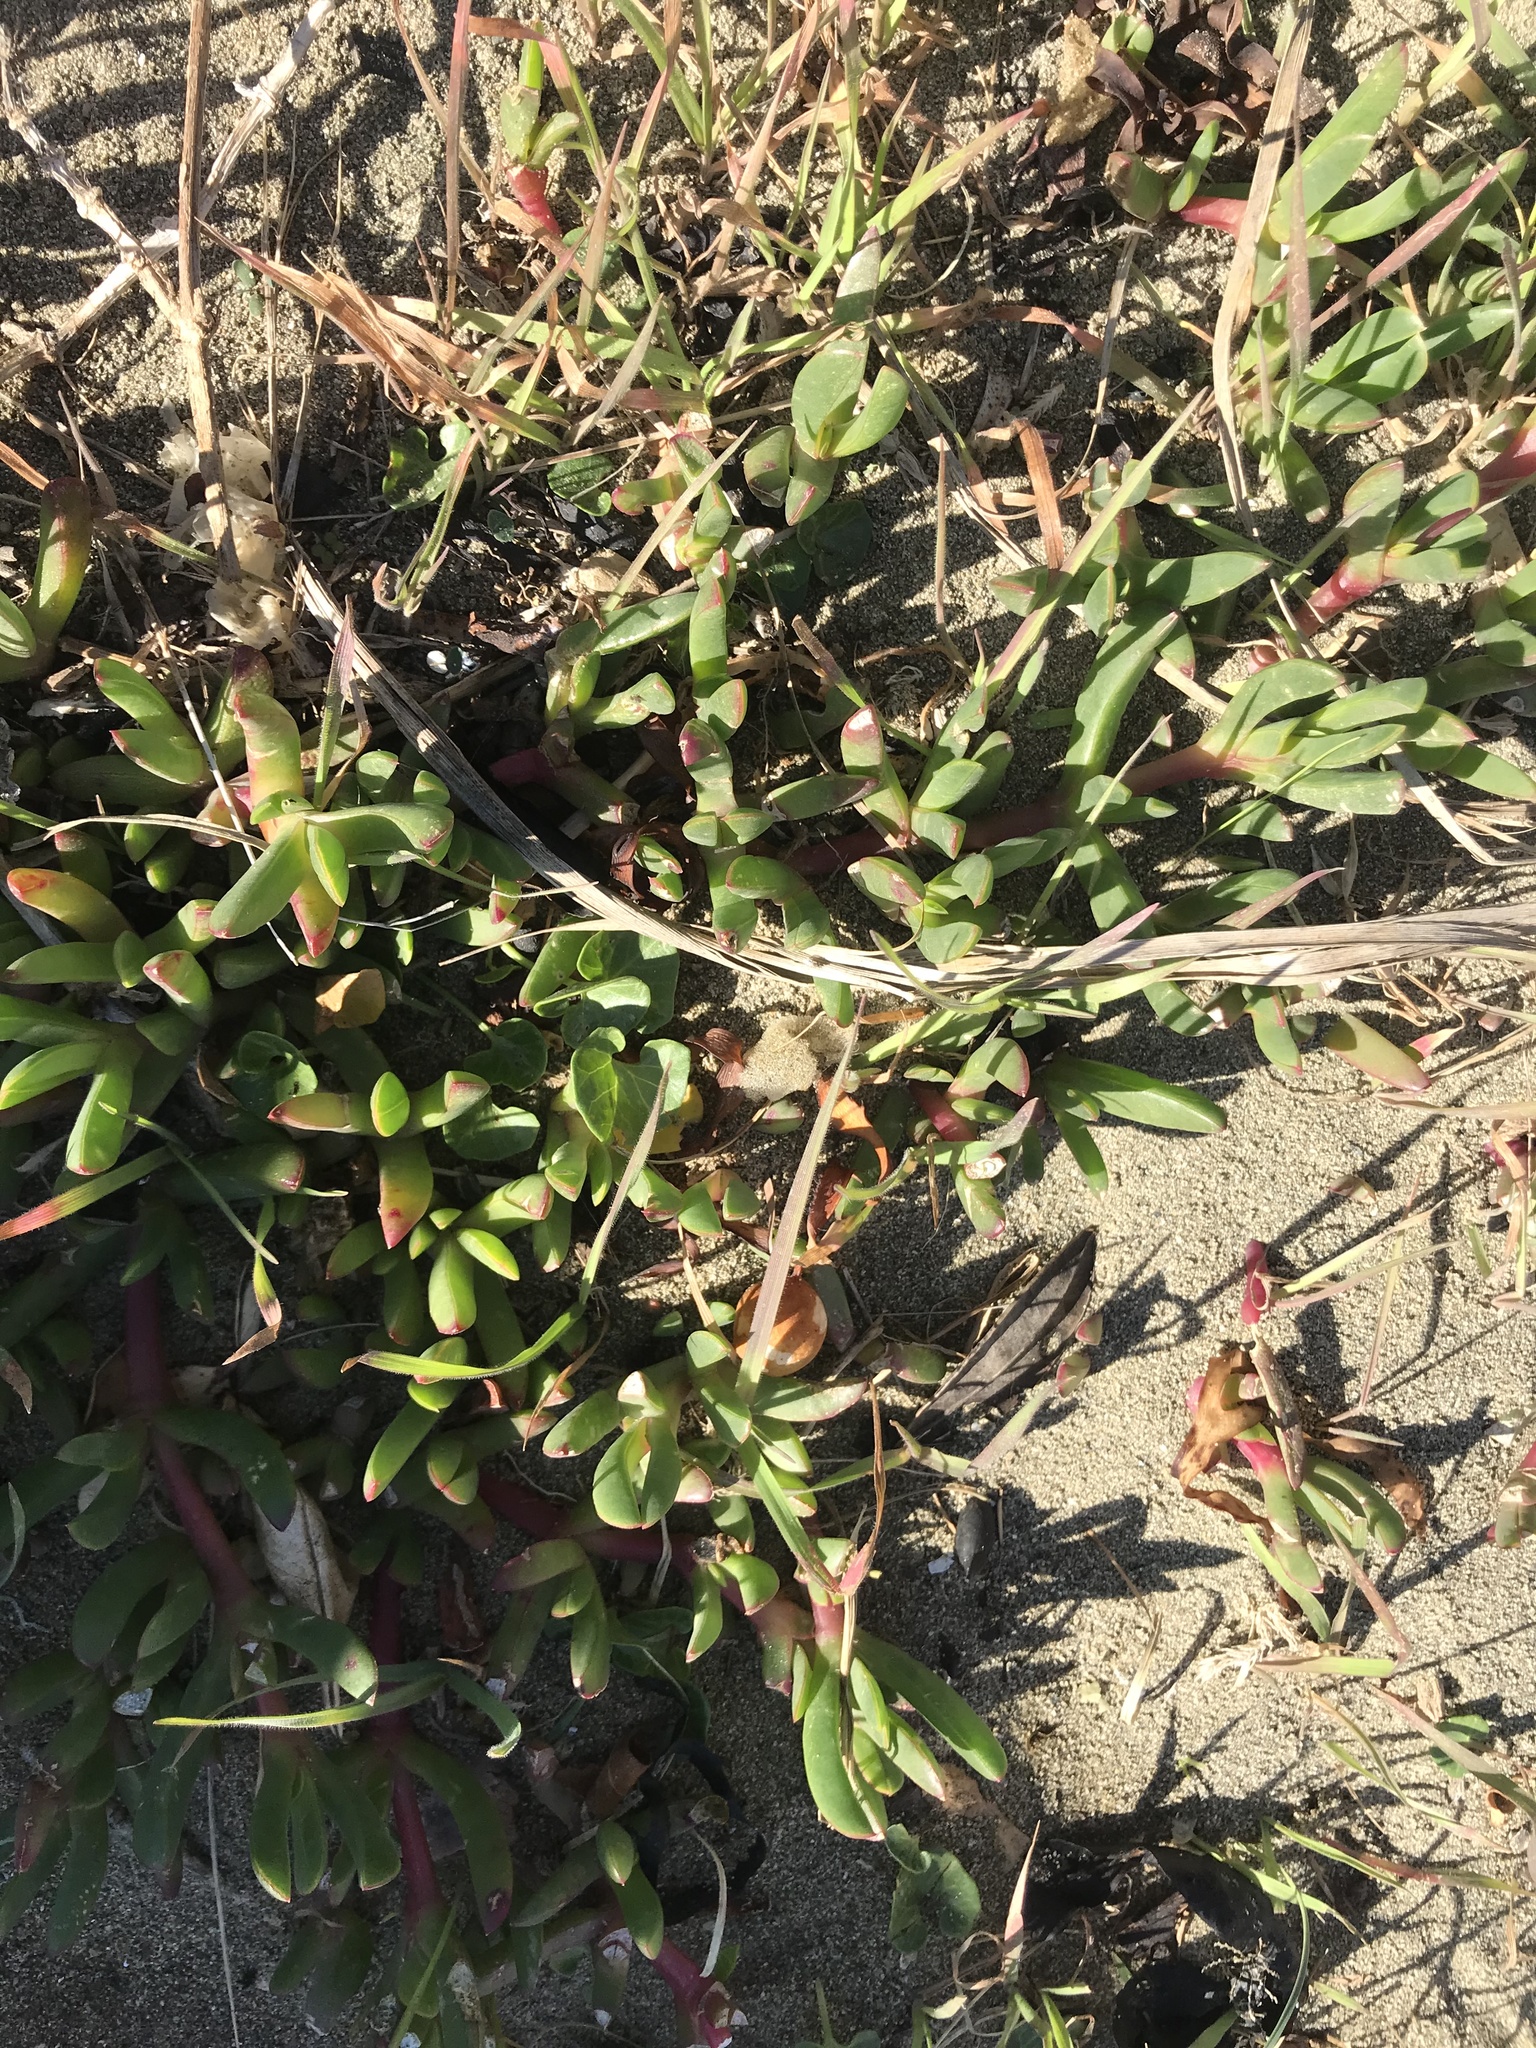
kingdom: Plantae
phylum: Tracheophyta
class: Magnoliopsida
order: Caryophyllales
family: Aizoaceae
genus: Disphyma
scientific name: Disphyma australe
